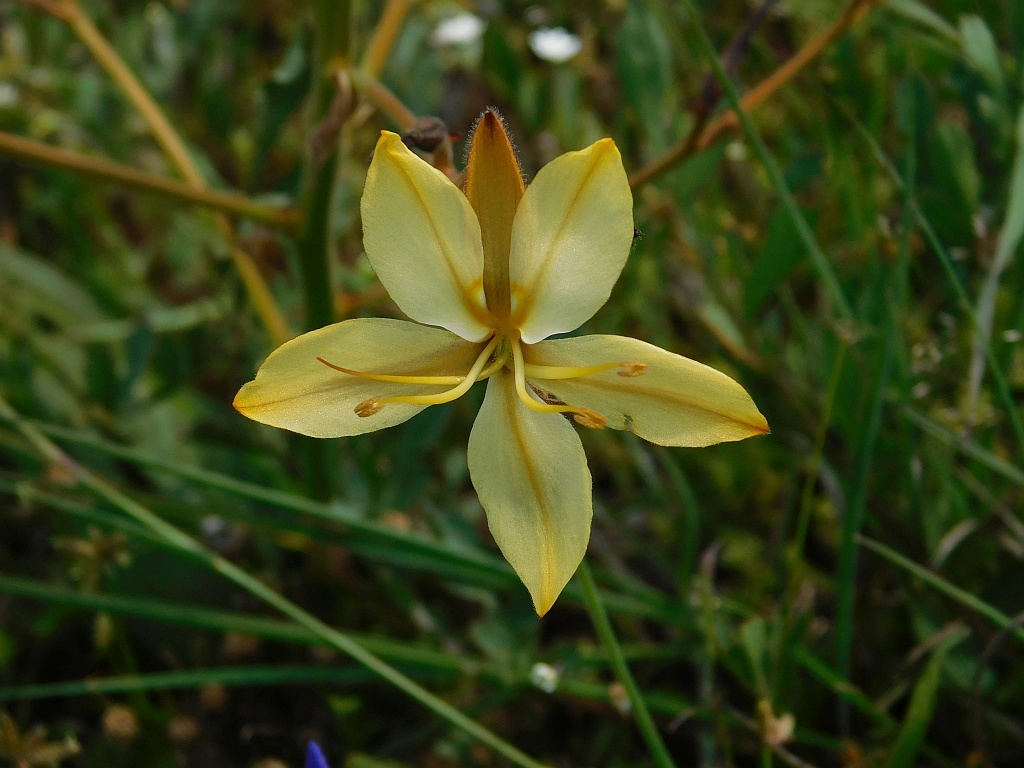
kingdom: Plantae
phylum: Tracheophyta
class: Liliopsida
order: Commelinales
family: Haemodoraceae
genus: Wachendorfia
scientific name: Wachendorfia paniculata
